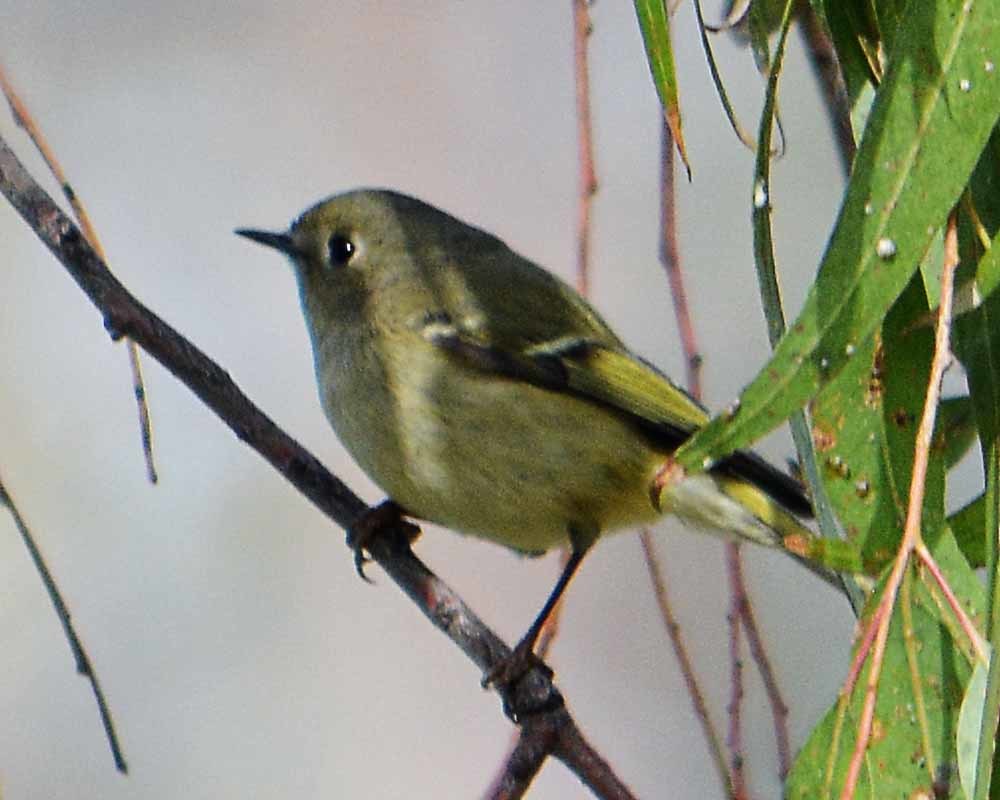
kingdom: Animalia
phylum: Chordata
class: Aves
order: Passeriformes
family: Regulidae
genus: Regulus
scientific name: Regulus calendula
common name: Ruby-crowned kinglet
